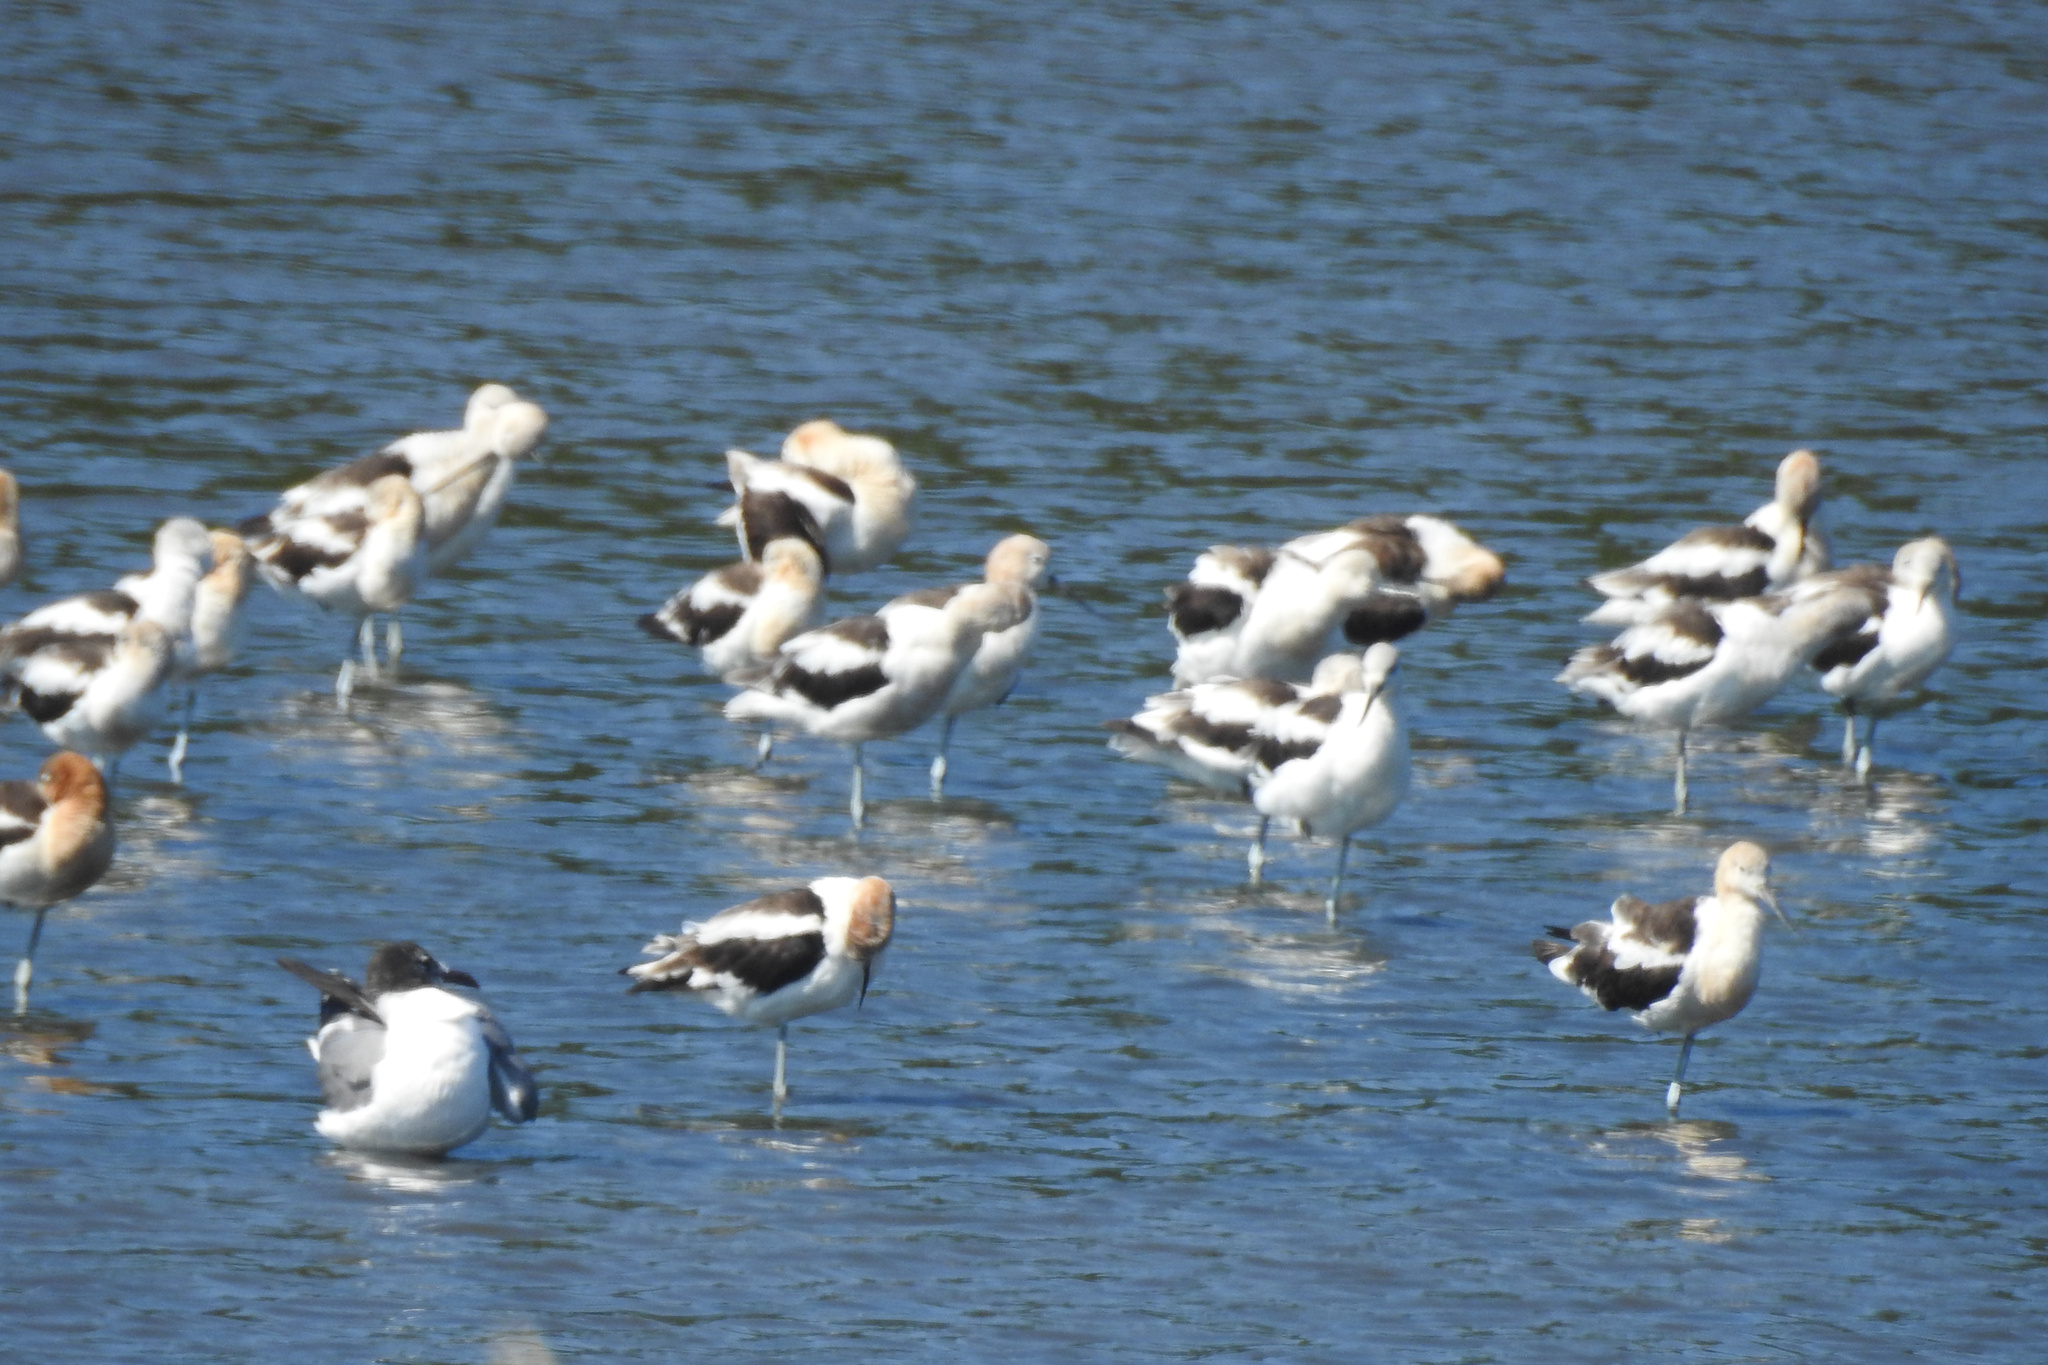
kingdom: Animalia
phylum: Chordata
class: Aves
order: Charadriiformes
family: Recurvirostridae
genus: Recurvirostra
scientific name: Recurvirostra americana
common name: American avocet
